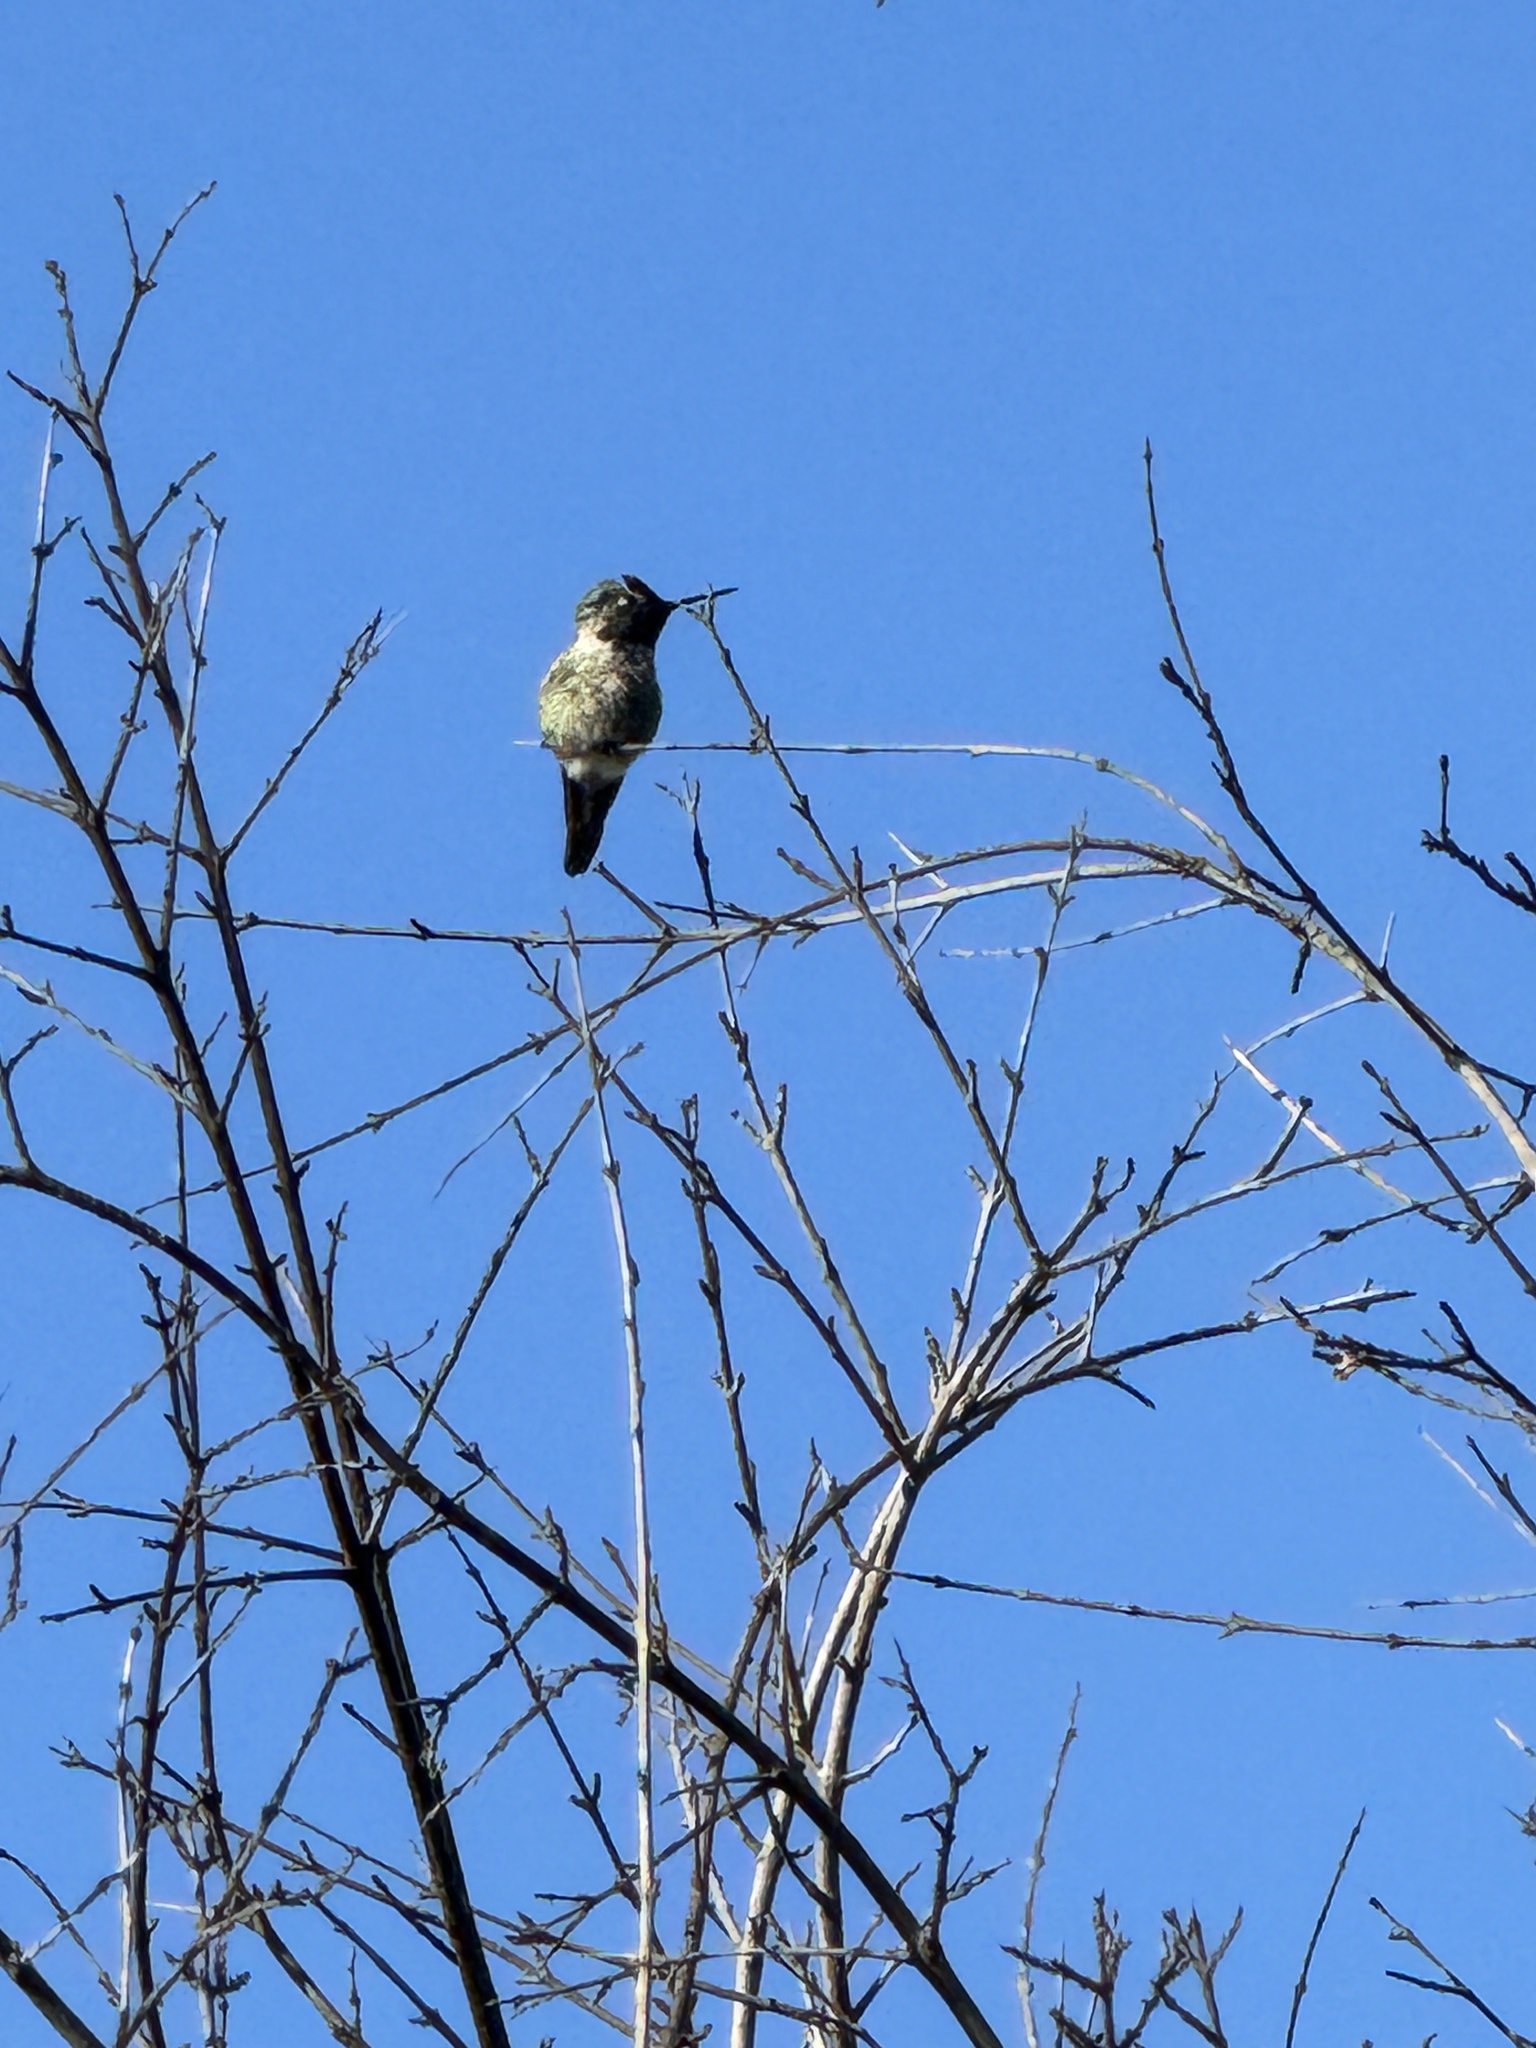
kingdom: Animalia
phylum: Chordata
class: Aves
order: Apodiformes
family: Trochilidae
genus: Calypte
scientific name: Calypte anna
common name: Anna's hummingbird
